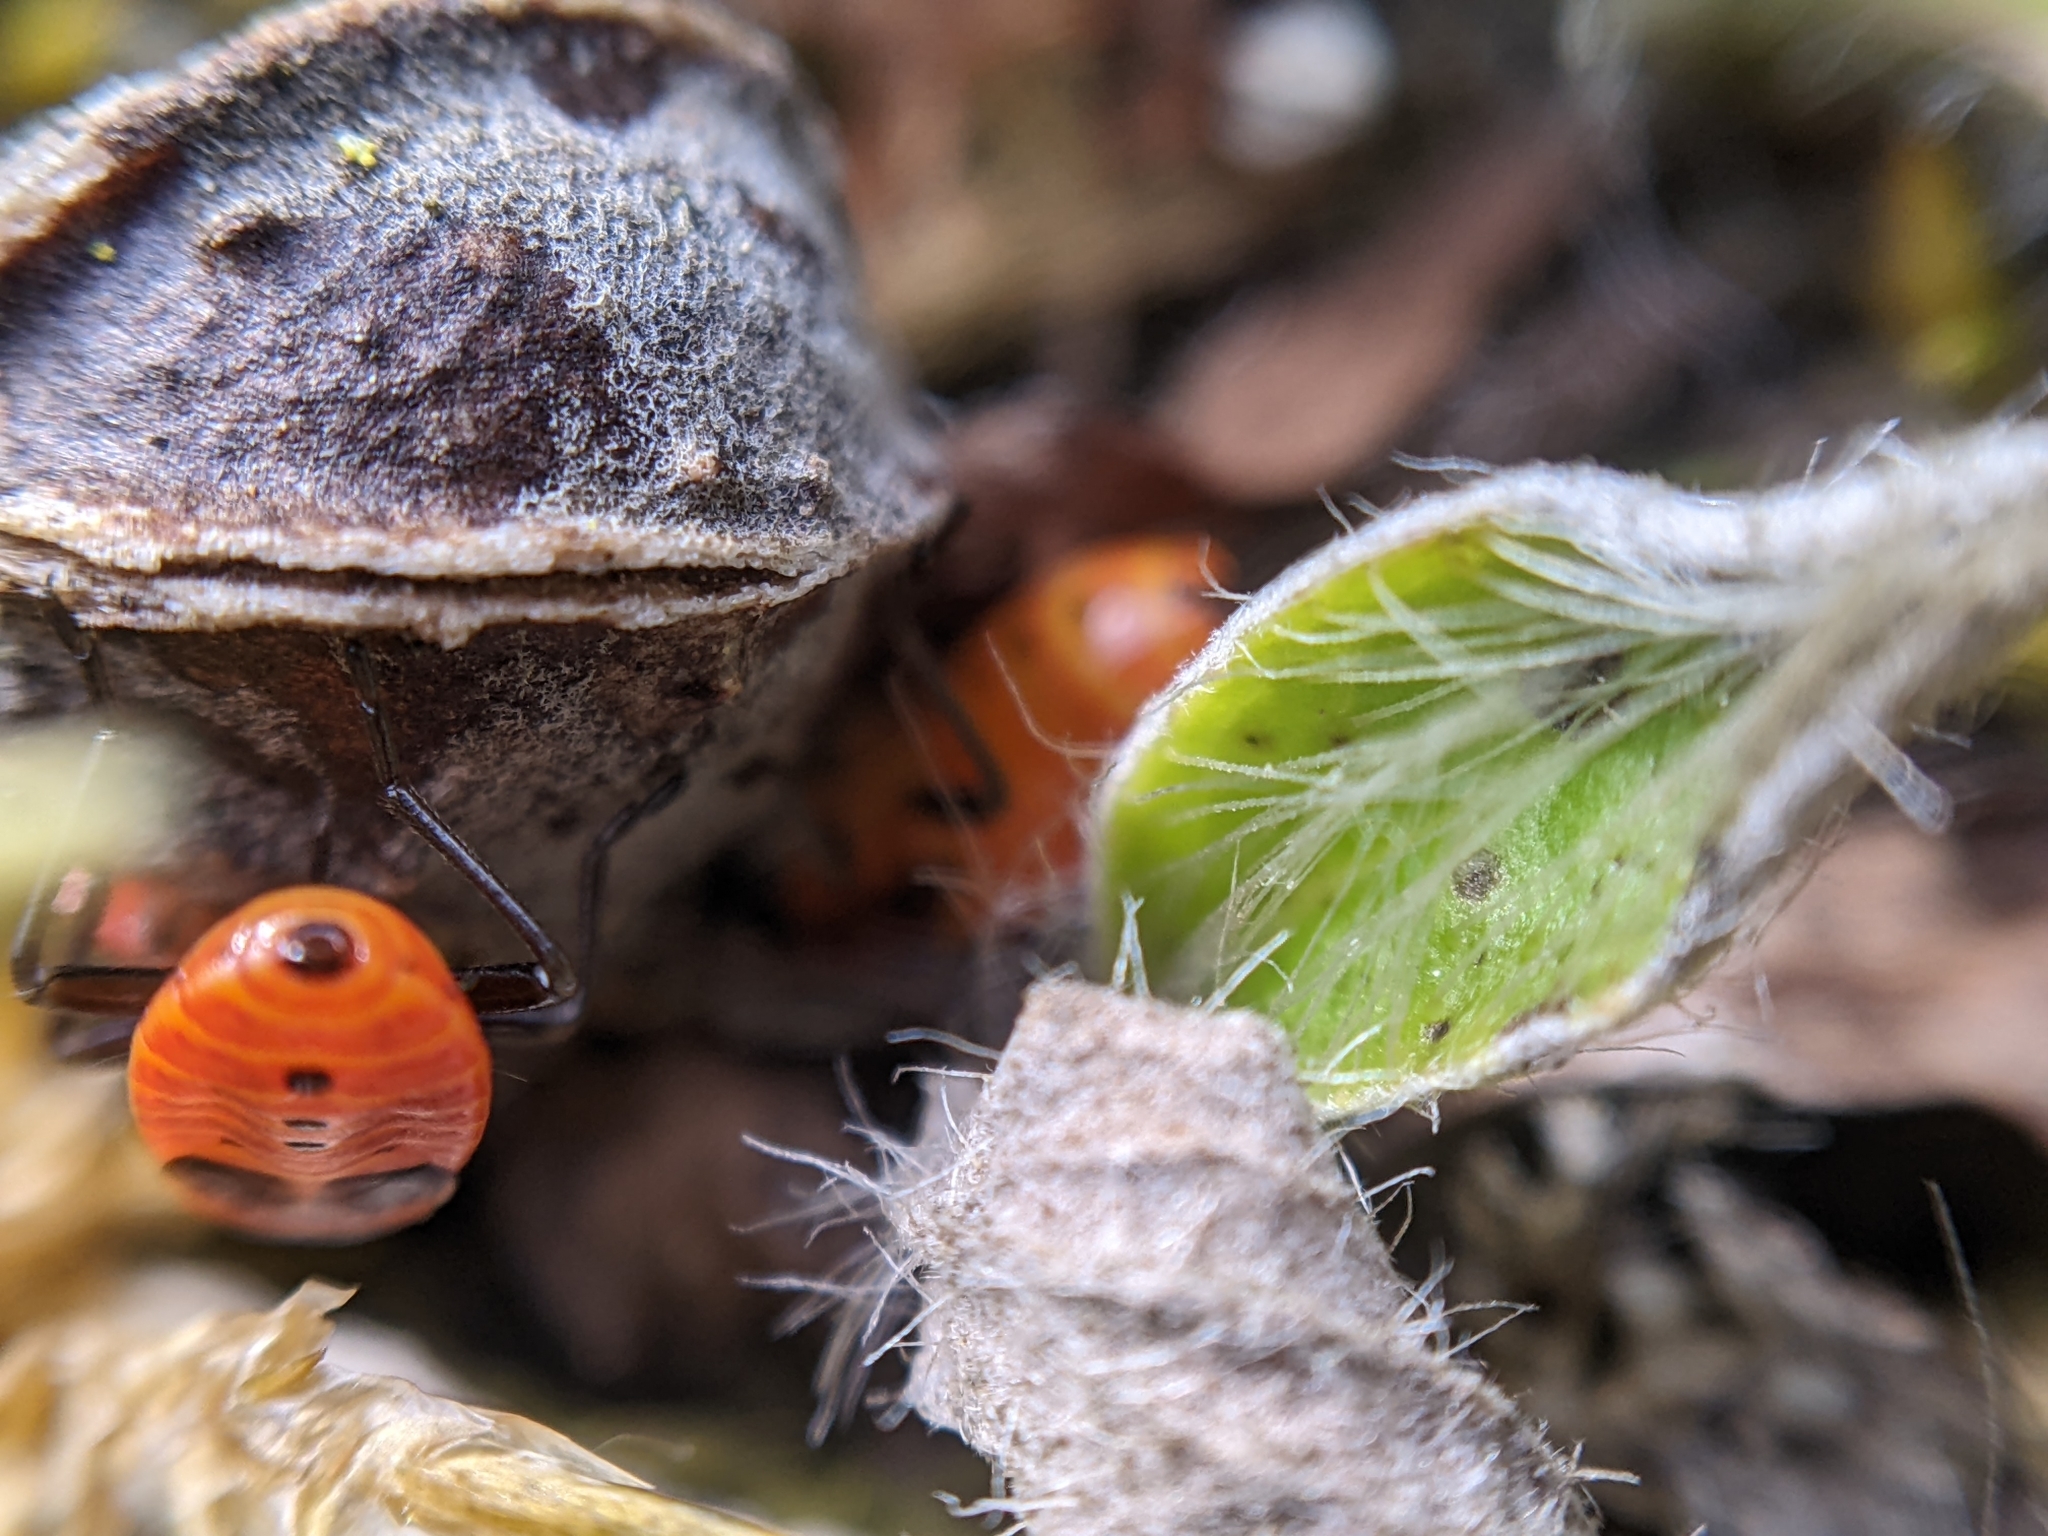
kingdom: Animalia
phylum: Arthropoda
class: Insecta
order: Hemiptera
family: Pyrrhocoridae
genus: Pyrrhocoris
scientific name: Pyrrhocoris apterus
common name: Firebug
